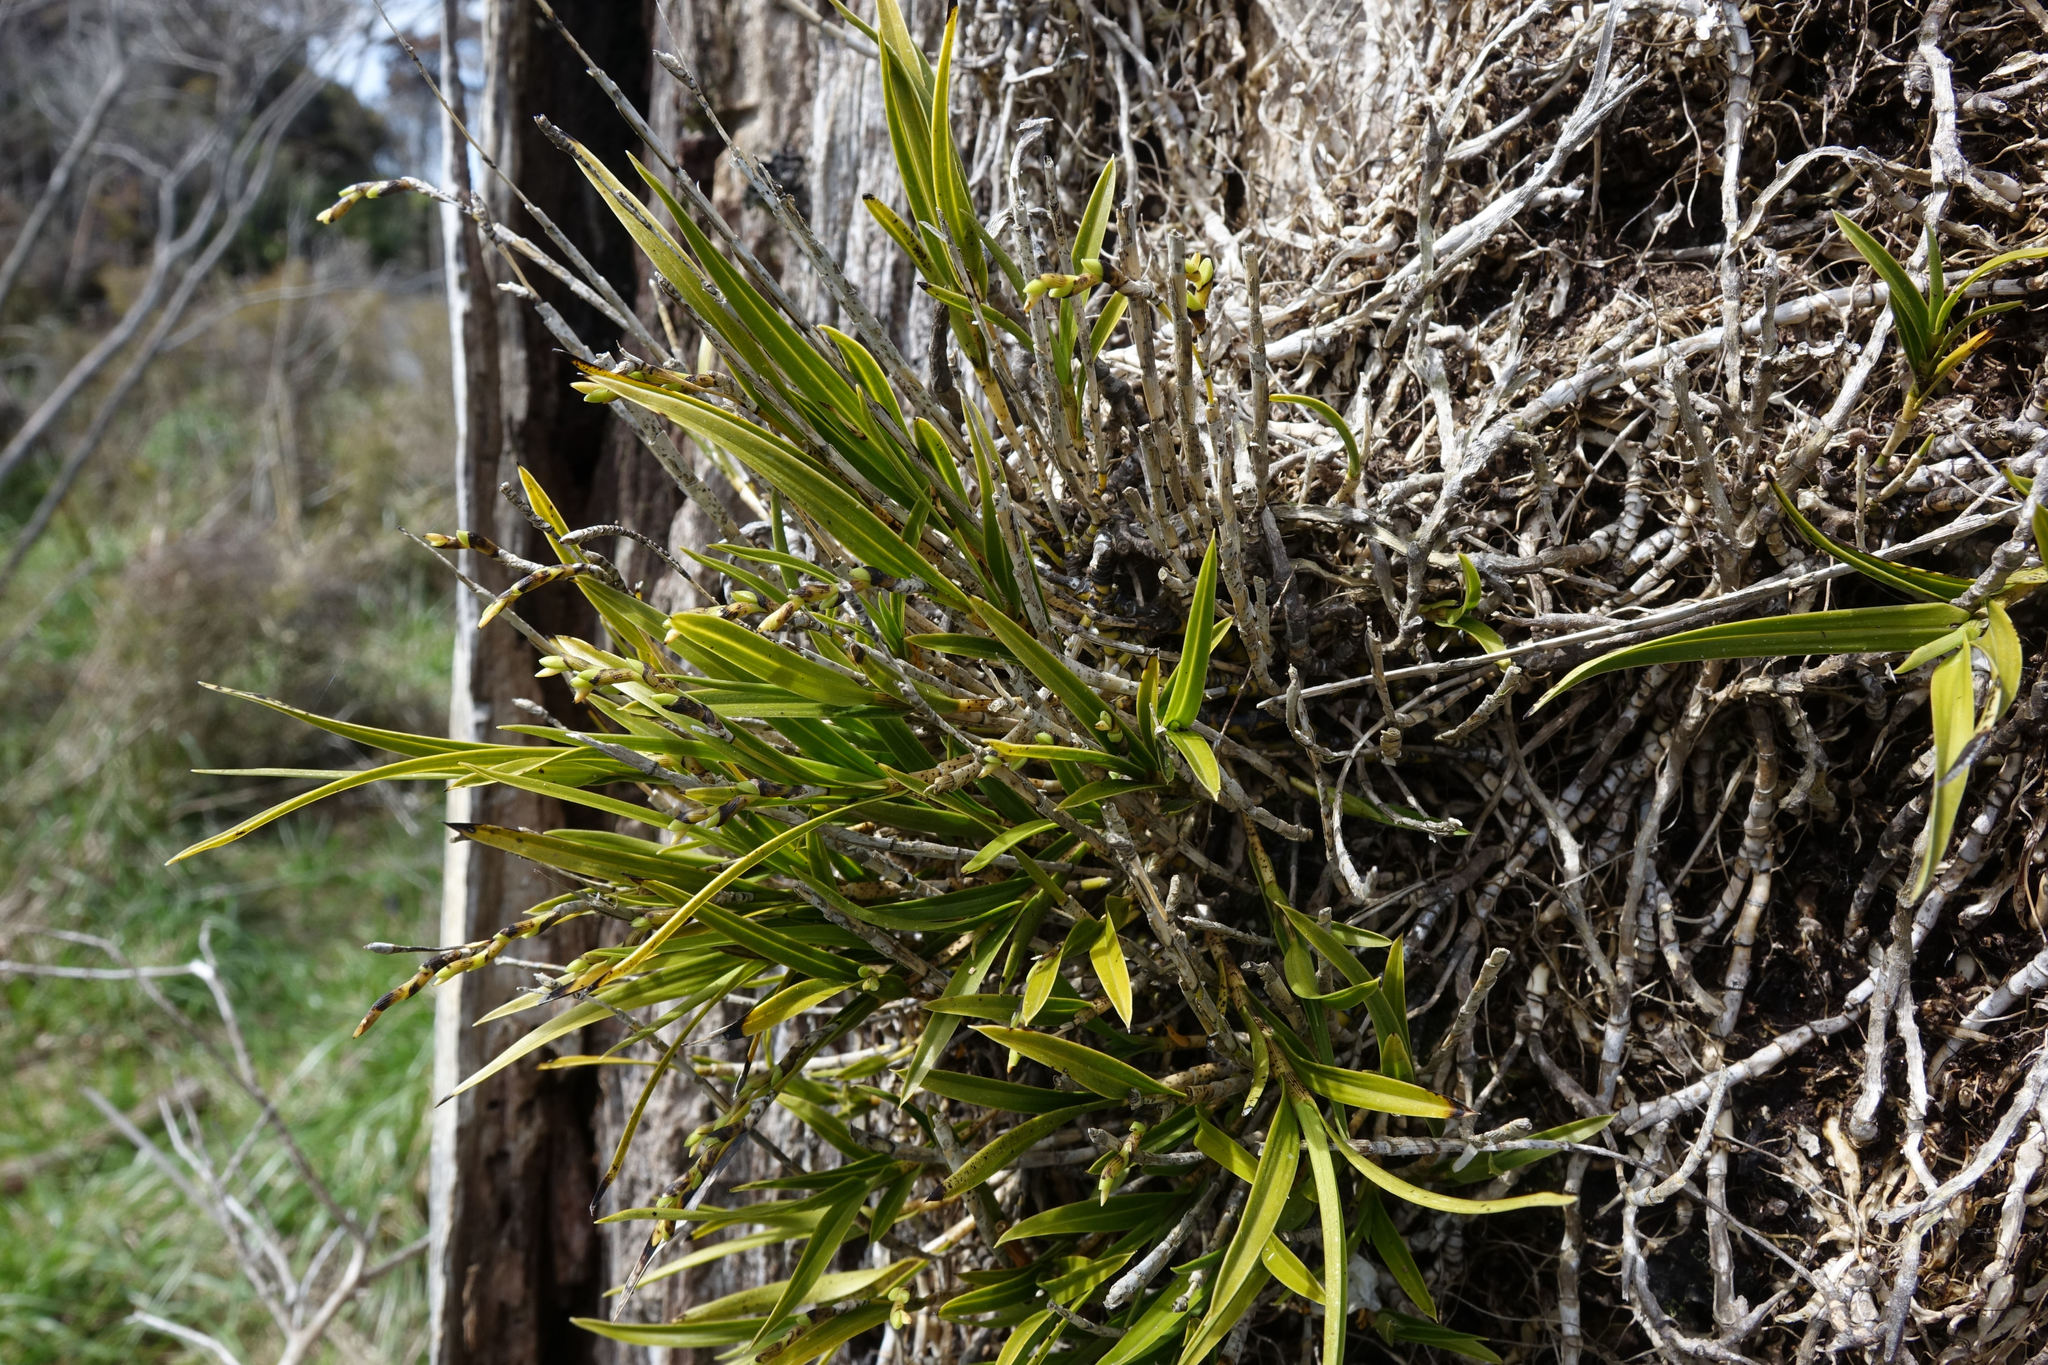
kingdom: Plantae
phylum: Tracheophyta
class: Liliopsida
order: Asparagales
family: Orchidaceae
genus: Earina
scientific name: Earina mucronata
